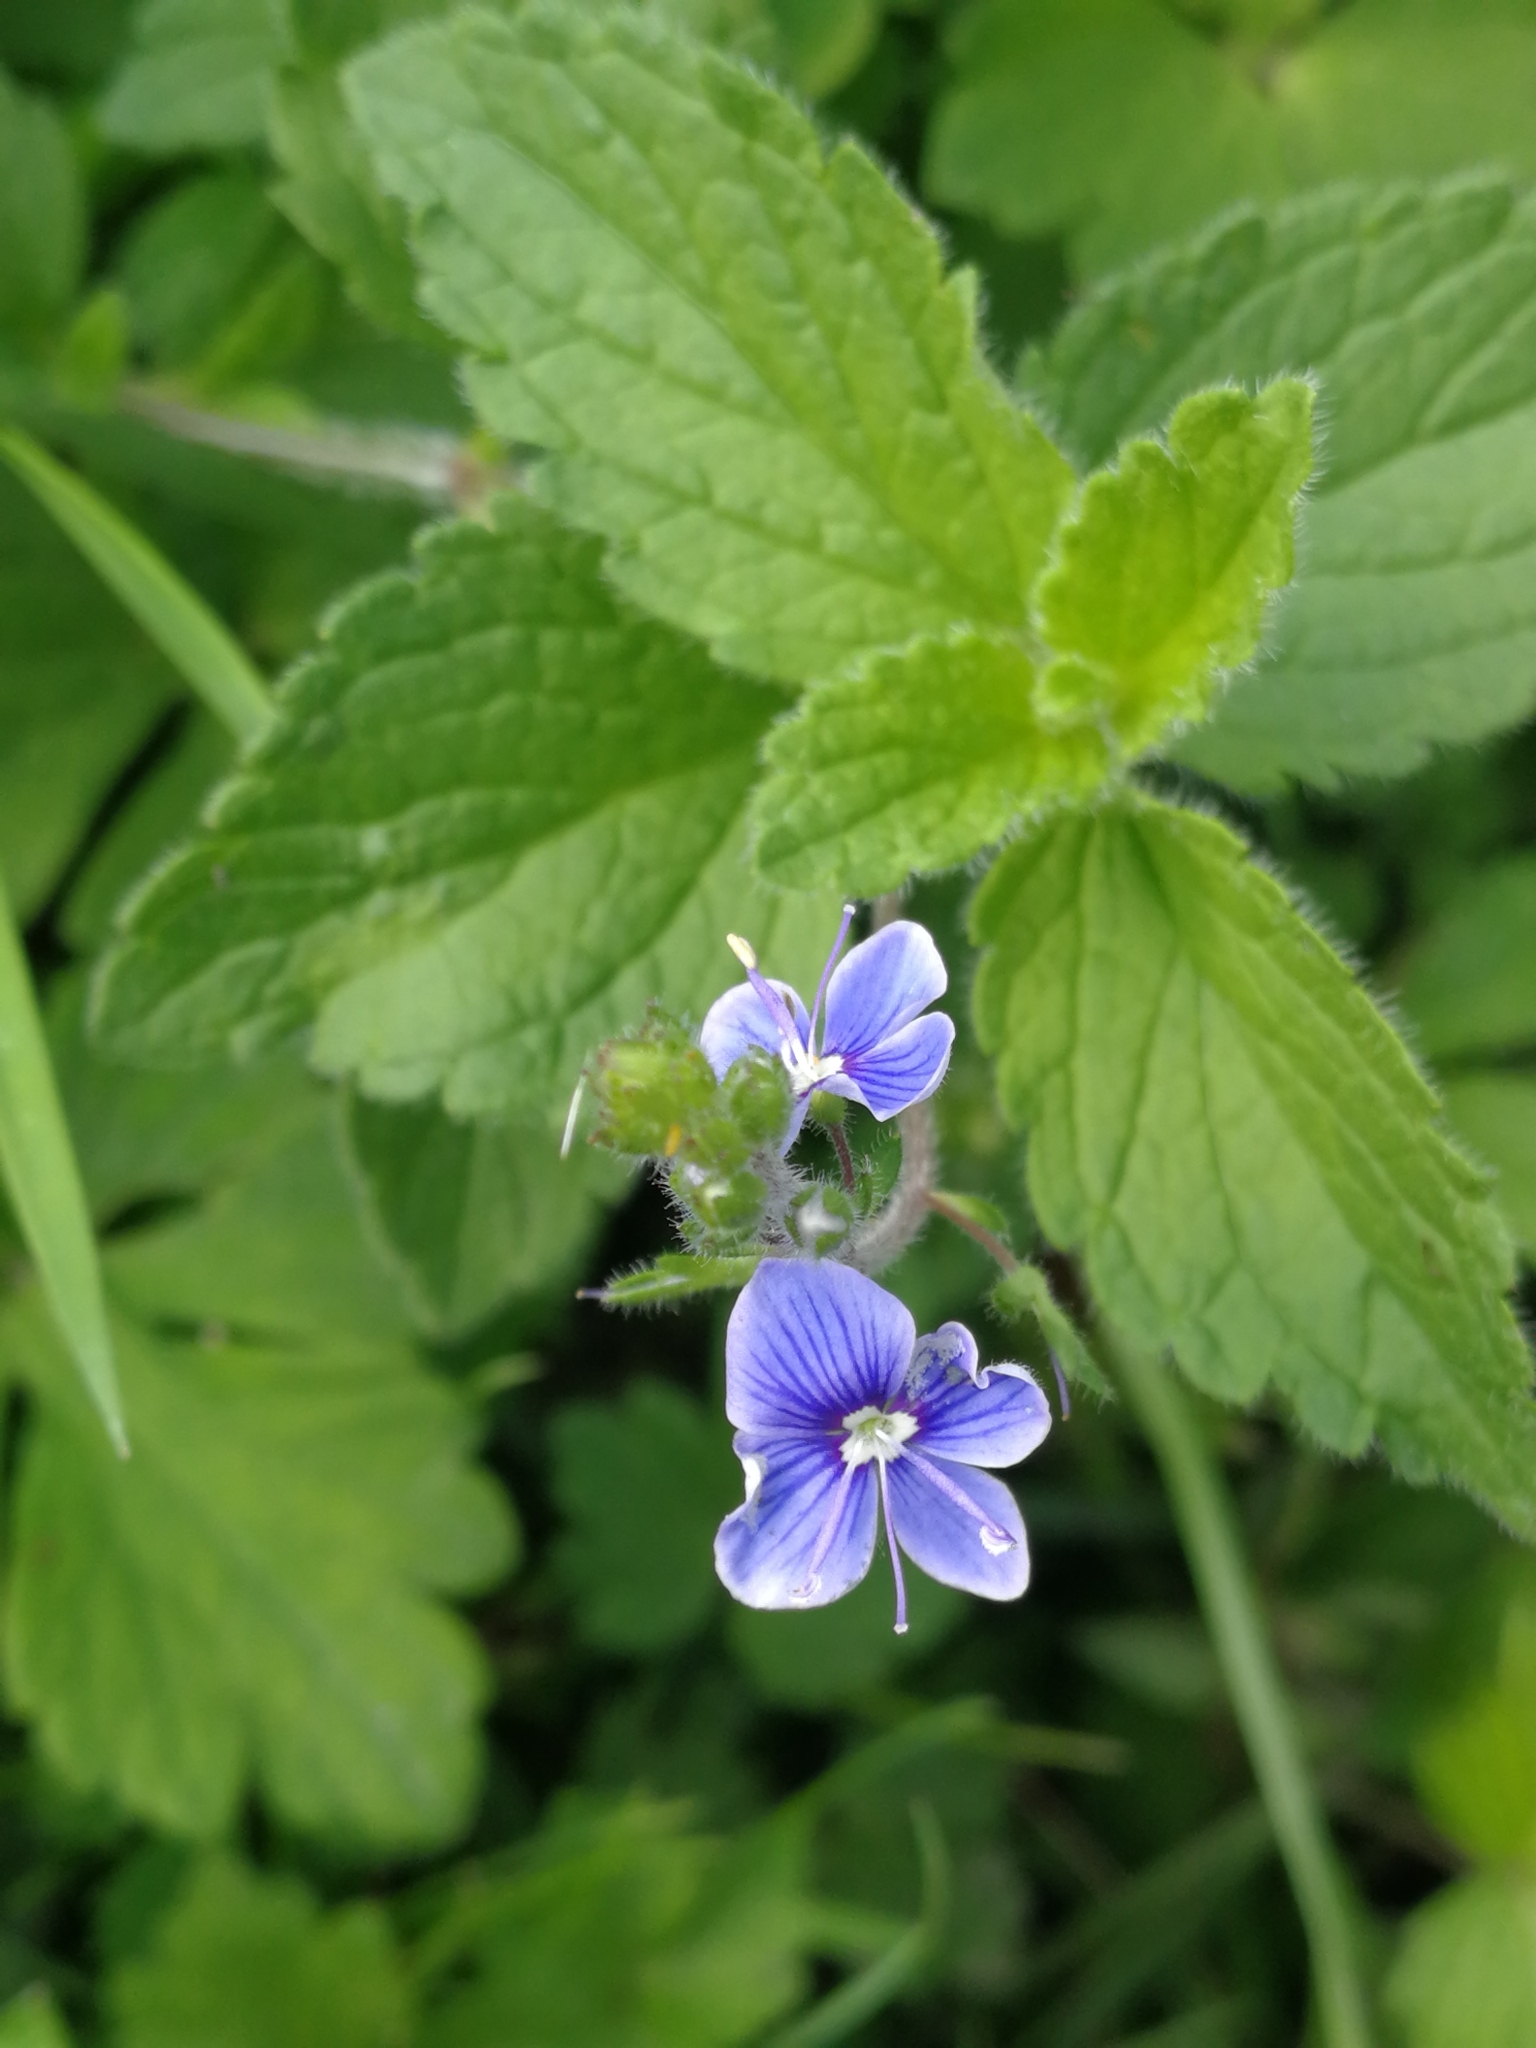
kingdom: Plantae
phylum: Tracheophyta
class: Magnoliopsida
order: Lamiales
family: Plantaginaceae
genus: Veronica
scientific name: Veronica chamaedrys
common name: Germander speedwell
